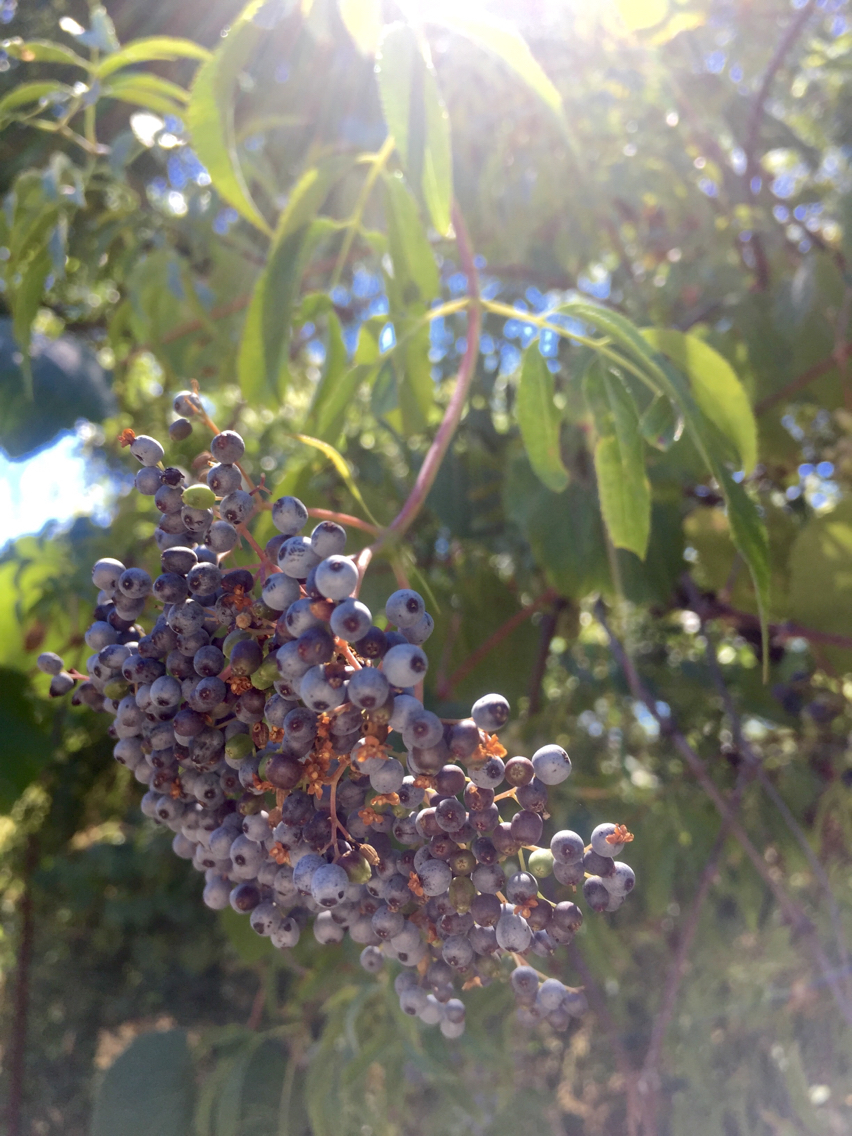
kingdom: Plantae
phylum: Tracheophyta
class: Magnoliopsida
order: Dipsacales
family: Viburnaceae
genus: Sambucus
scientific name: Sambucus cerulea
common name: Blue elder
